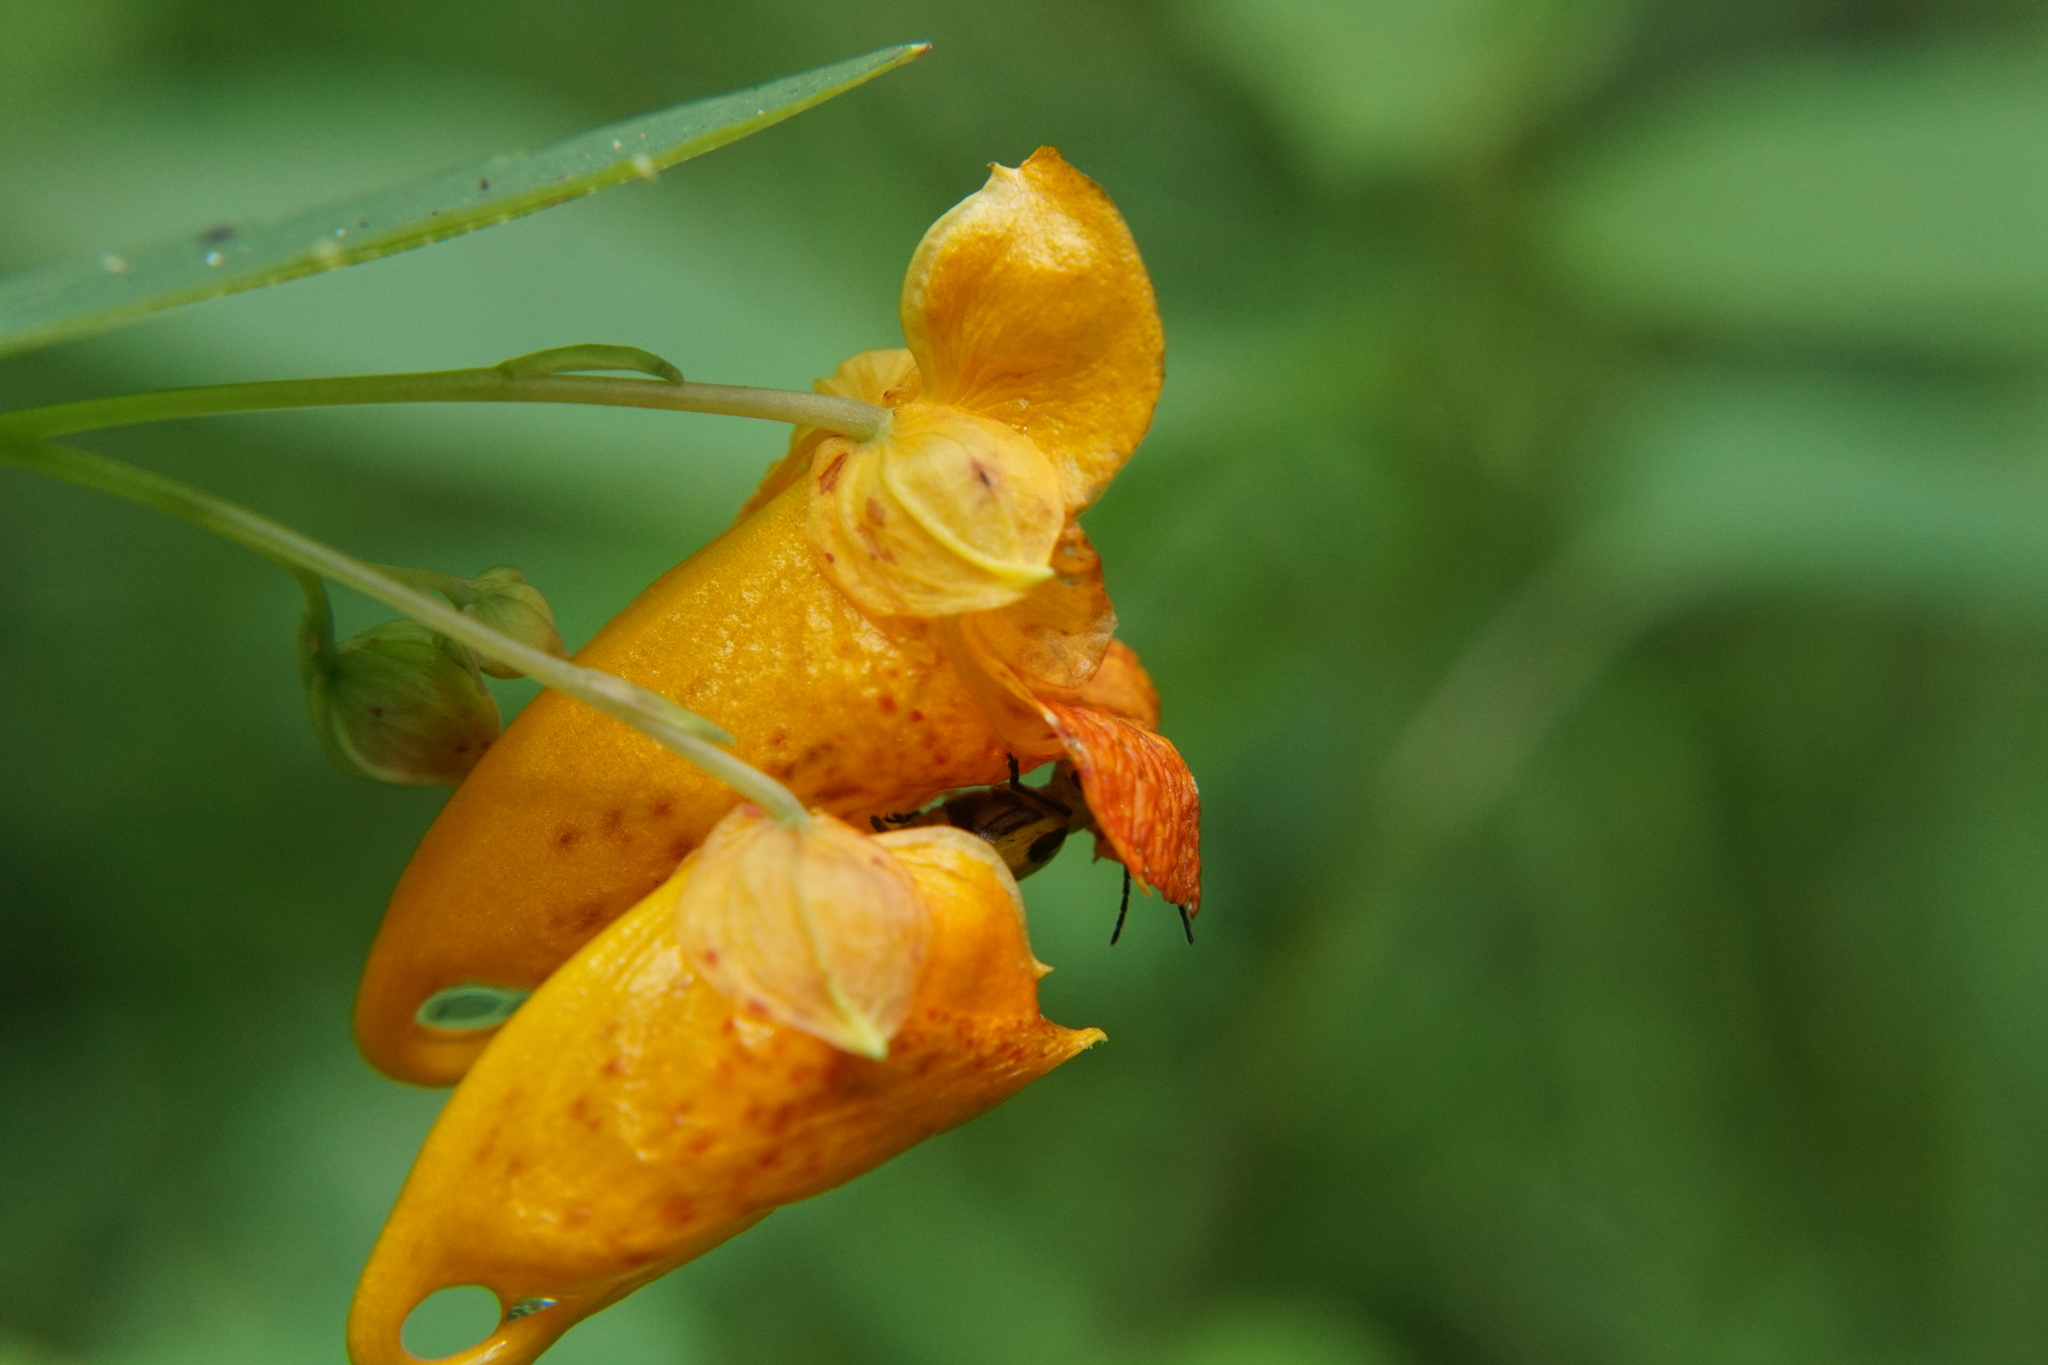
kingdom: Animalia
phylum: Arthropoda
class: Insecta
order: Coleoptera
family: Chrysomelidae
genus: Diabrotica
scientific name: Diabrotica undecimpunctata
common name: Spotted cucumber beetle
